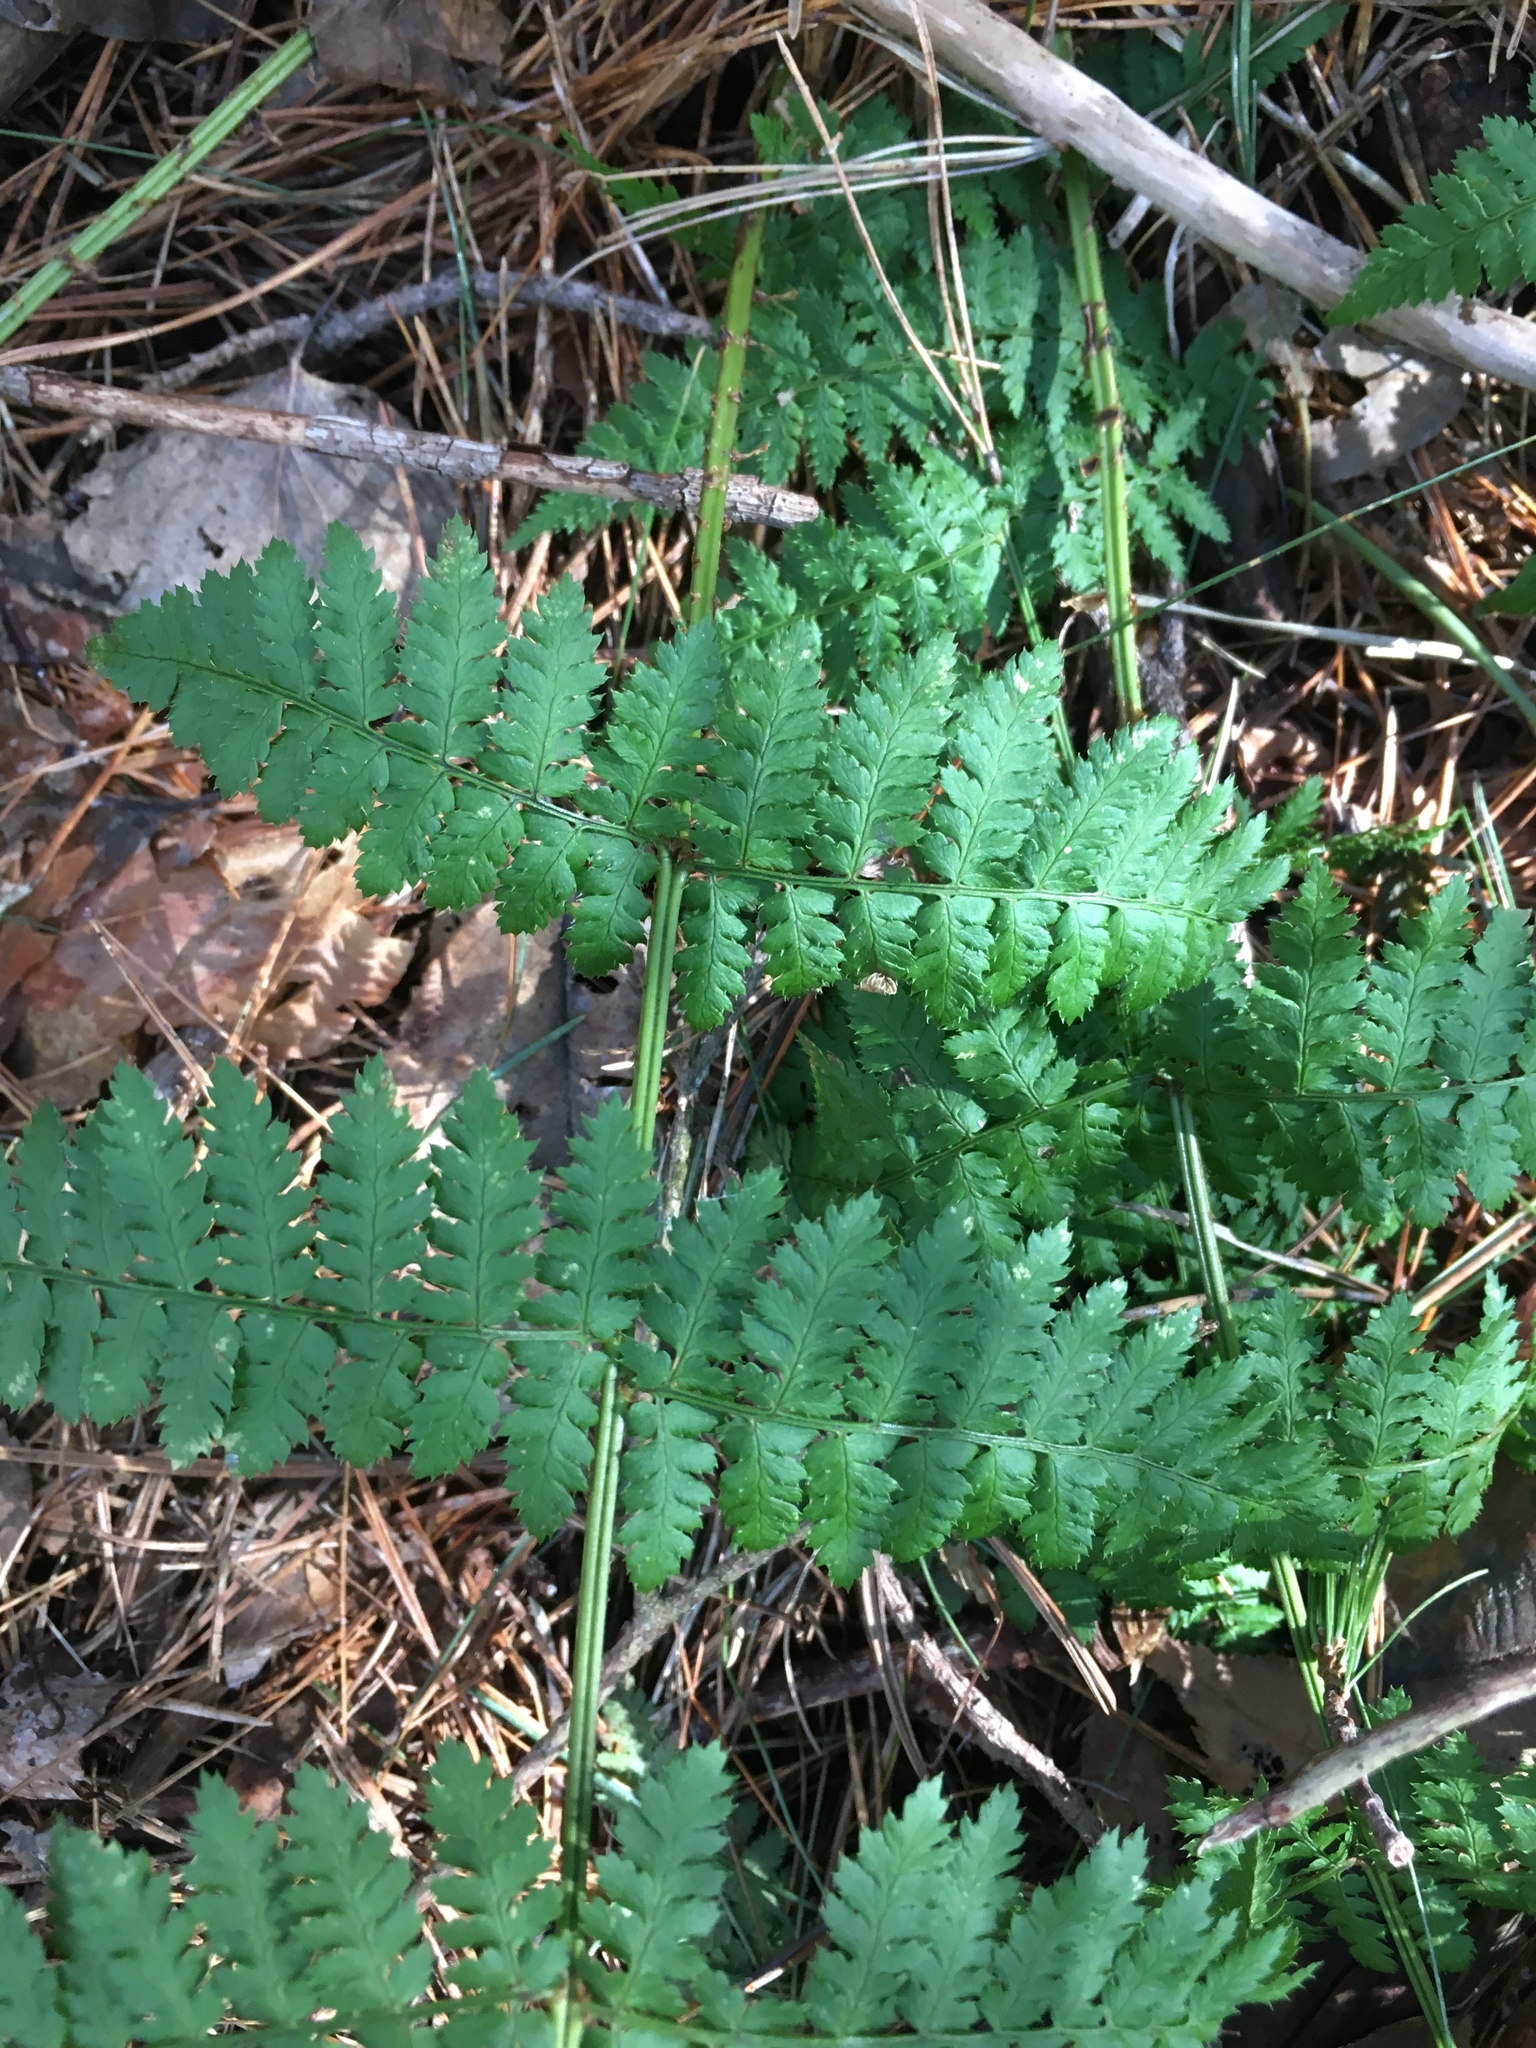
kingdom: Plantae
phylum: Tracheophyta
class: Polypodiopsida
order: Polypodiales
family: Dryopteridaceae
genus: Dryopteris
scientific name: Dryopteris intermedia
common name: Evergreen wood fern
